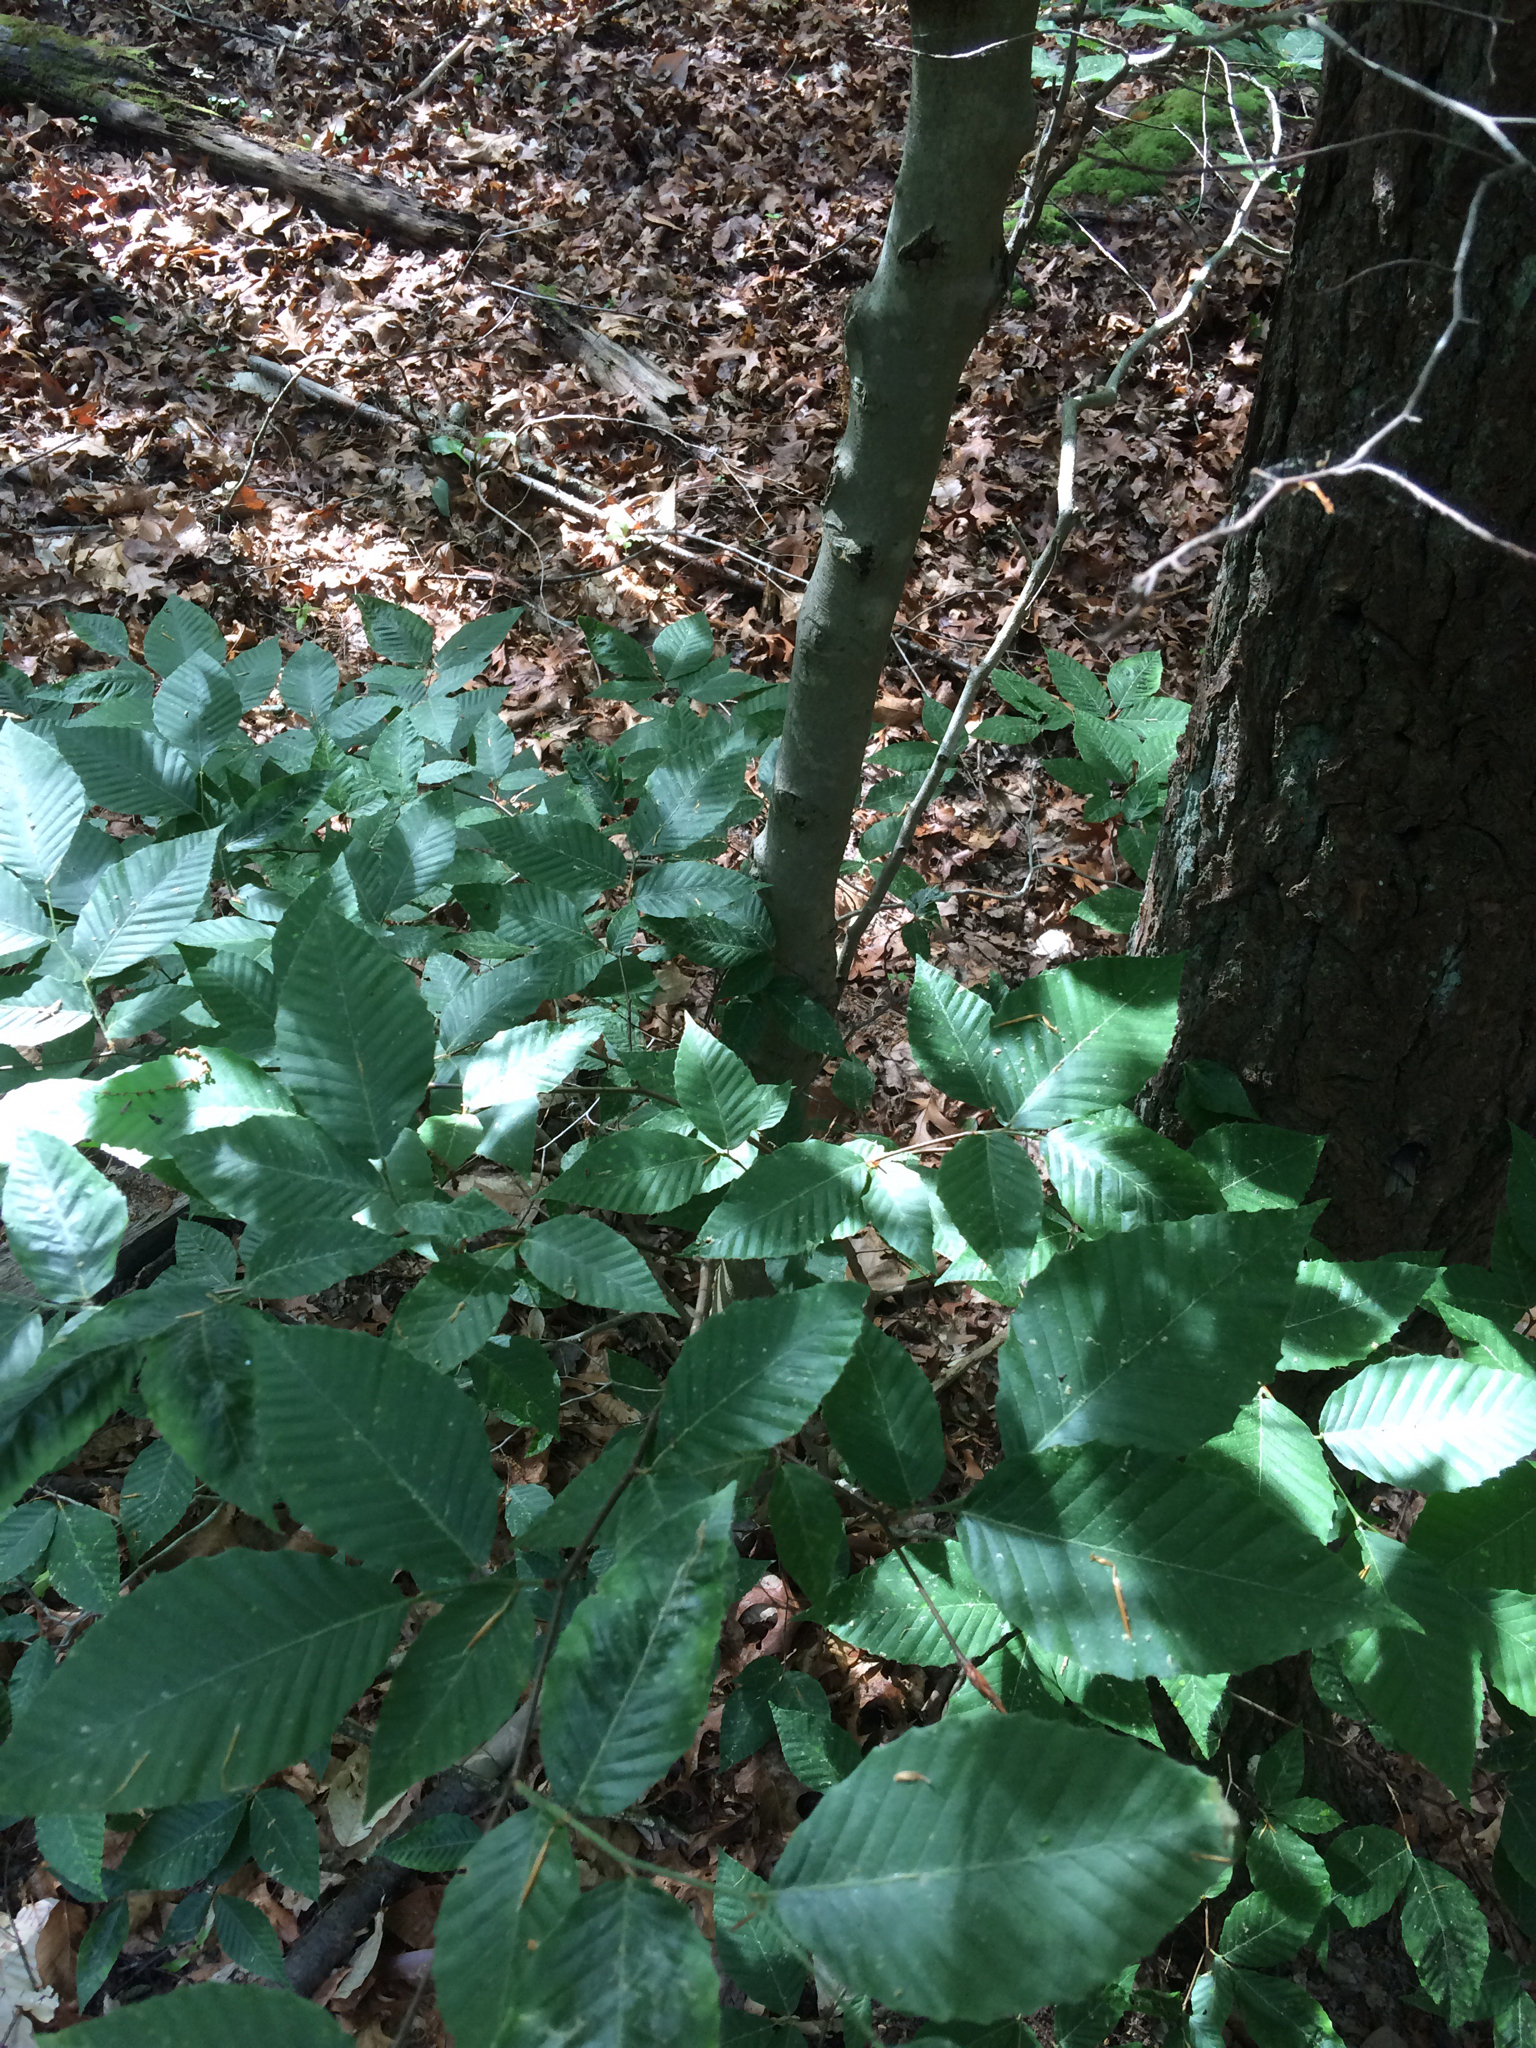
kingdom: Plantae
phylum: Tracheophyta
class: Magnoliopsida
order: Fagales
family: Fagaceae
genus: Fagus
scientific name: Fagus grandifolia
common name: American beech
